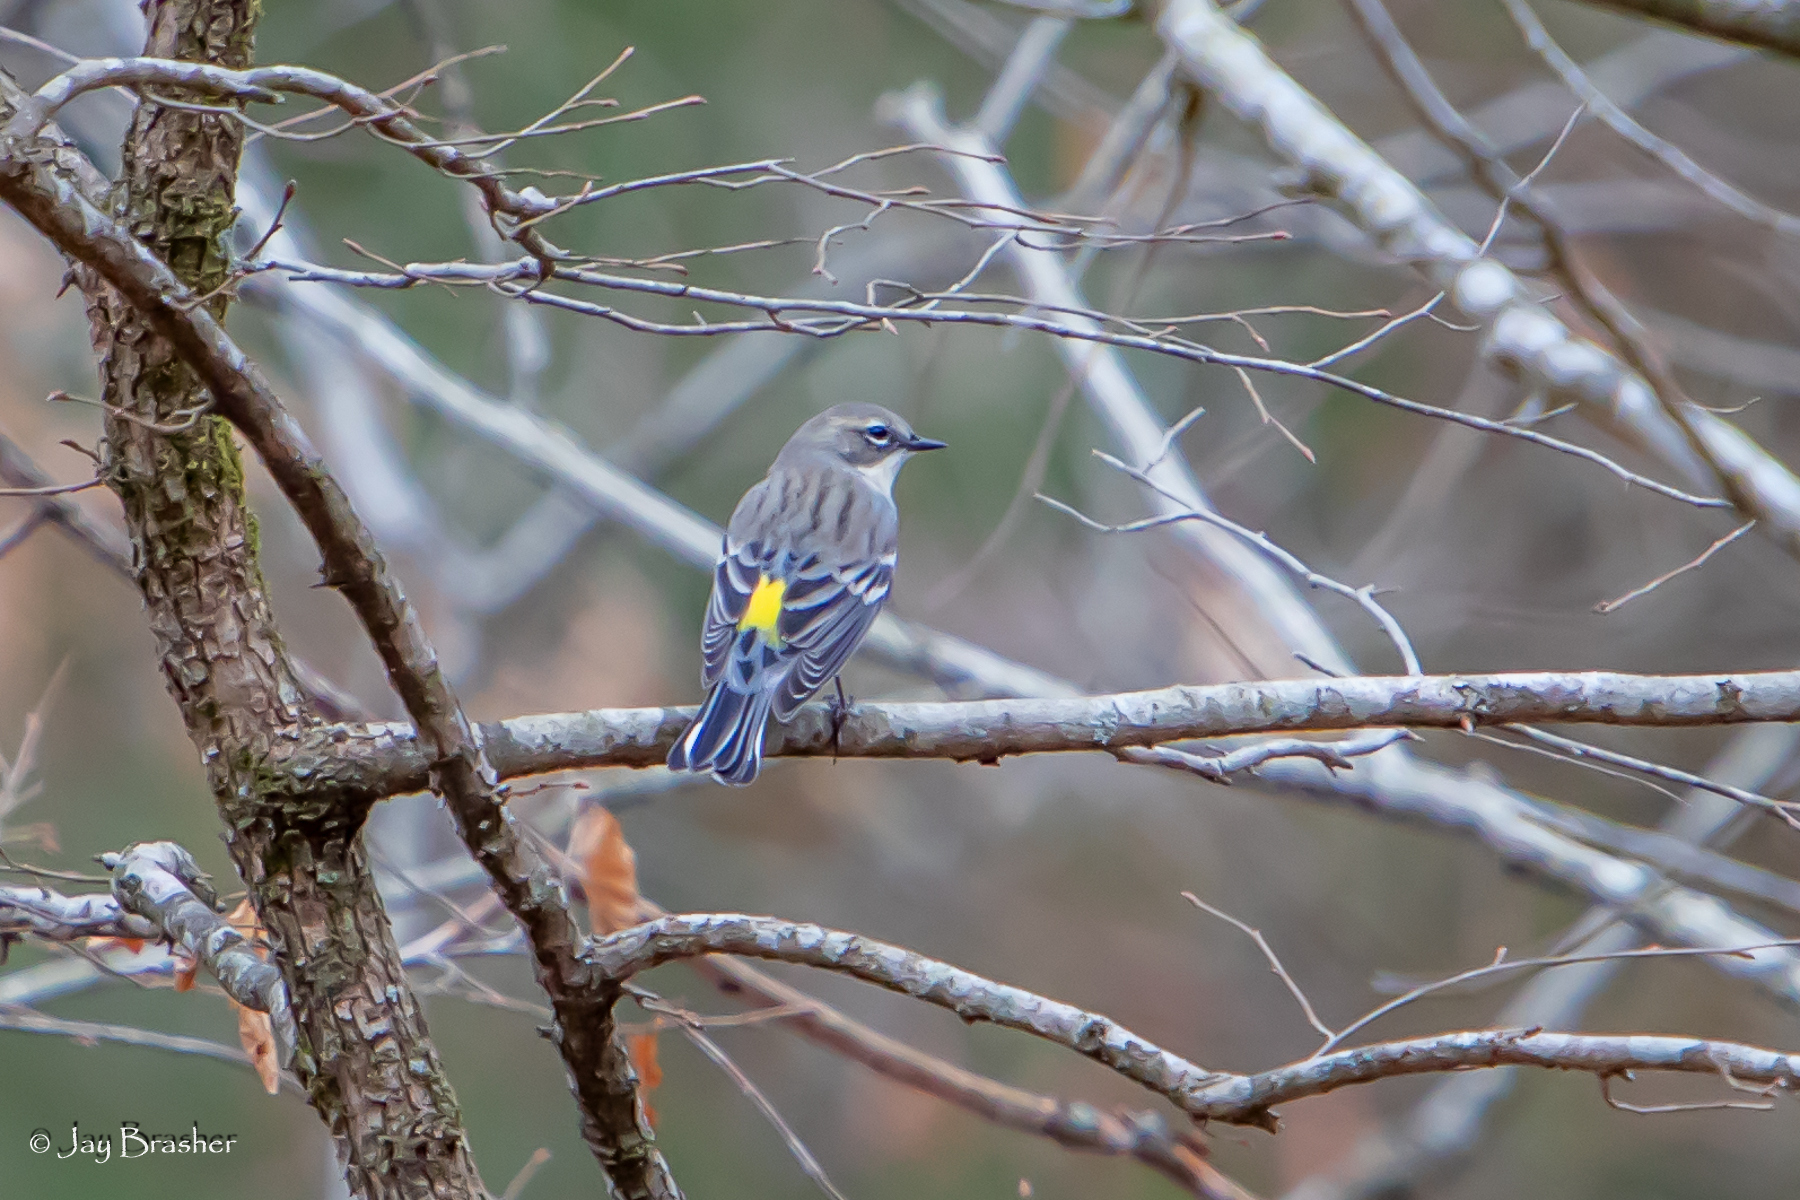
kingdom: Animalia
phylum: Chordata
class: Aves
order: Passeriformes
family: Parulidae
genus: Setophaga
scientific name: Setophaga coronata
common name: Myrtle warbler
